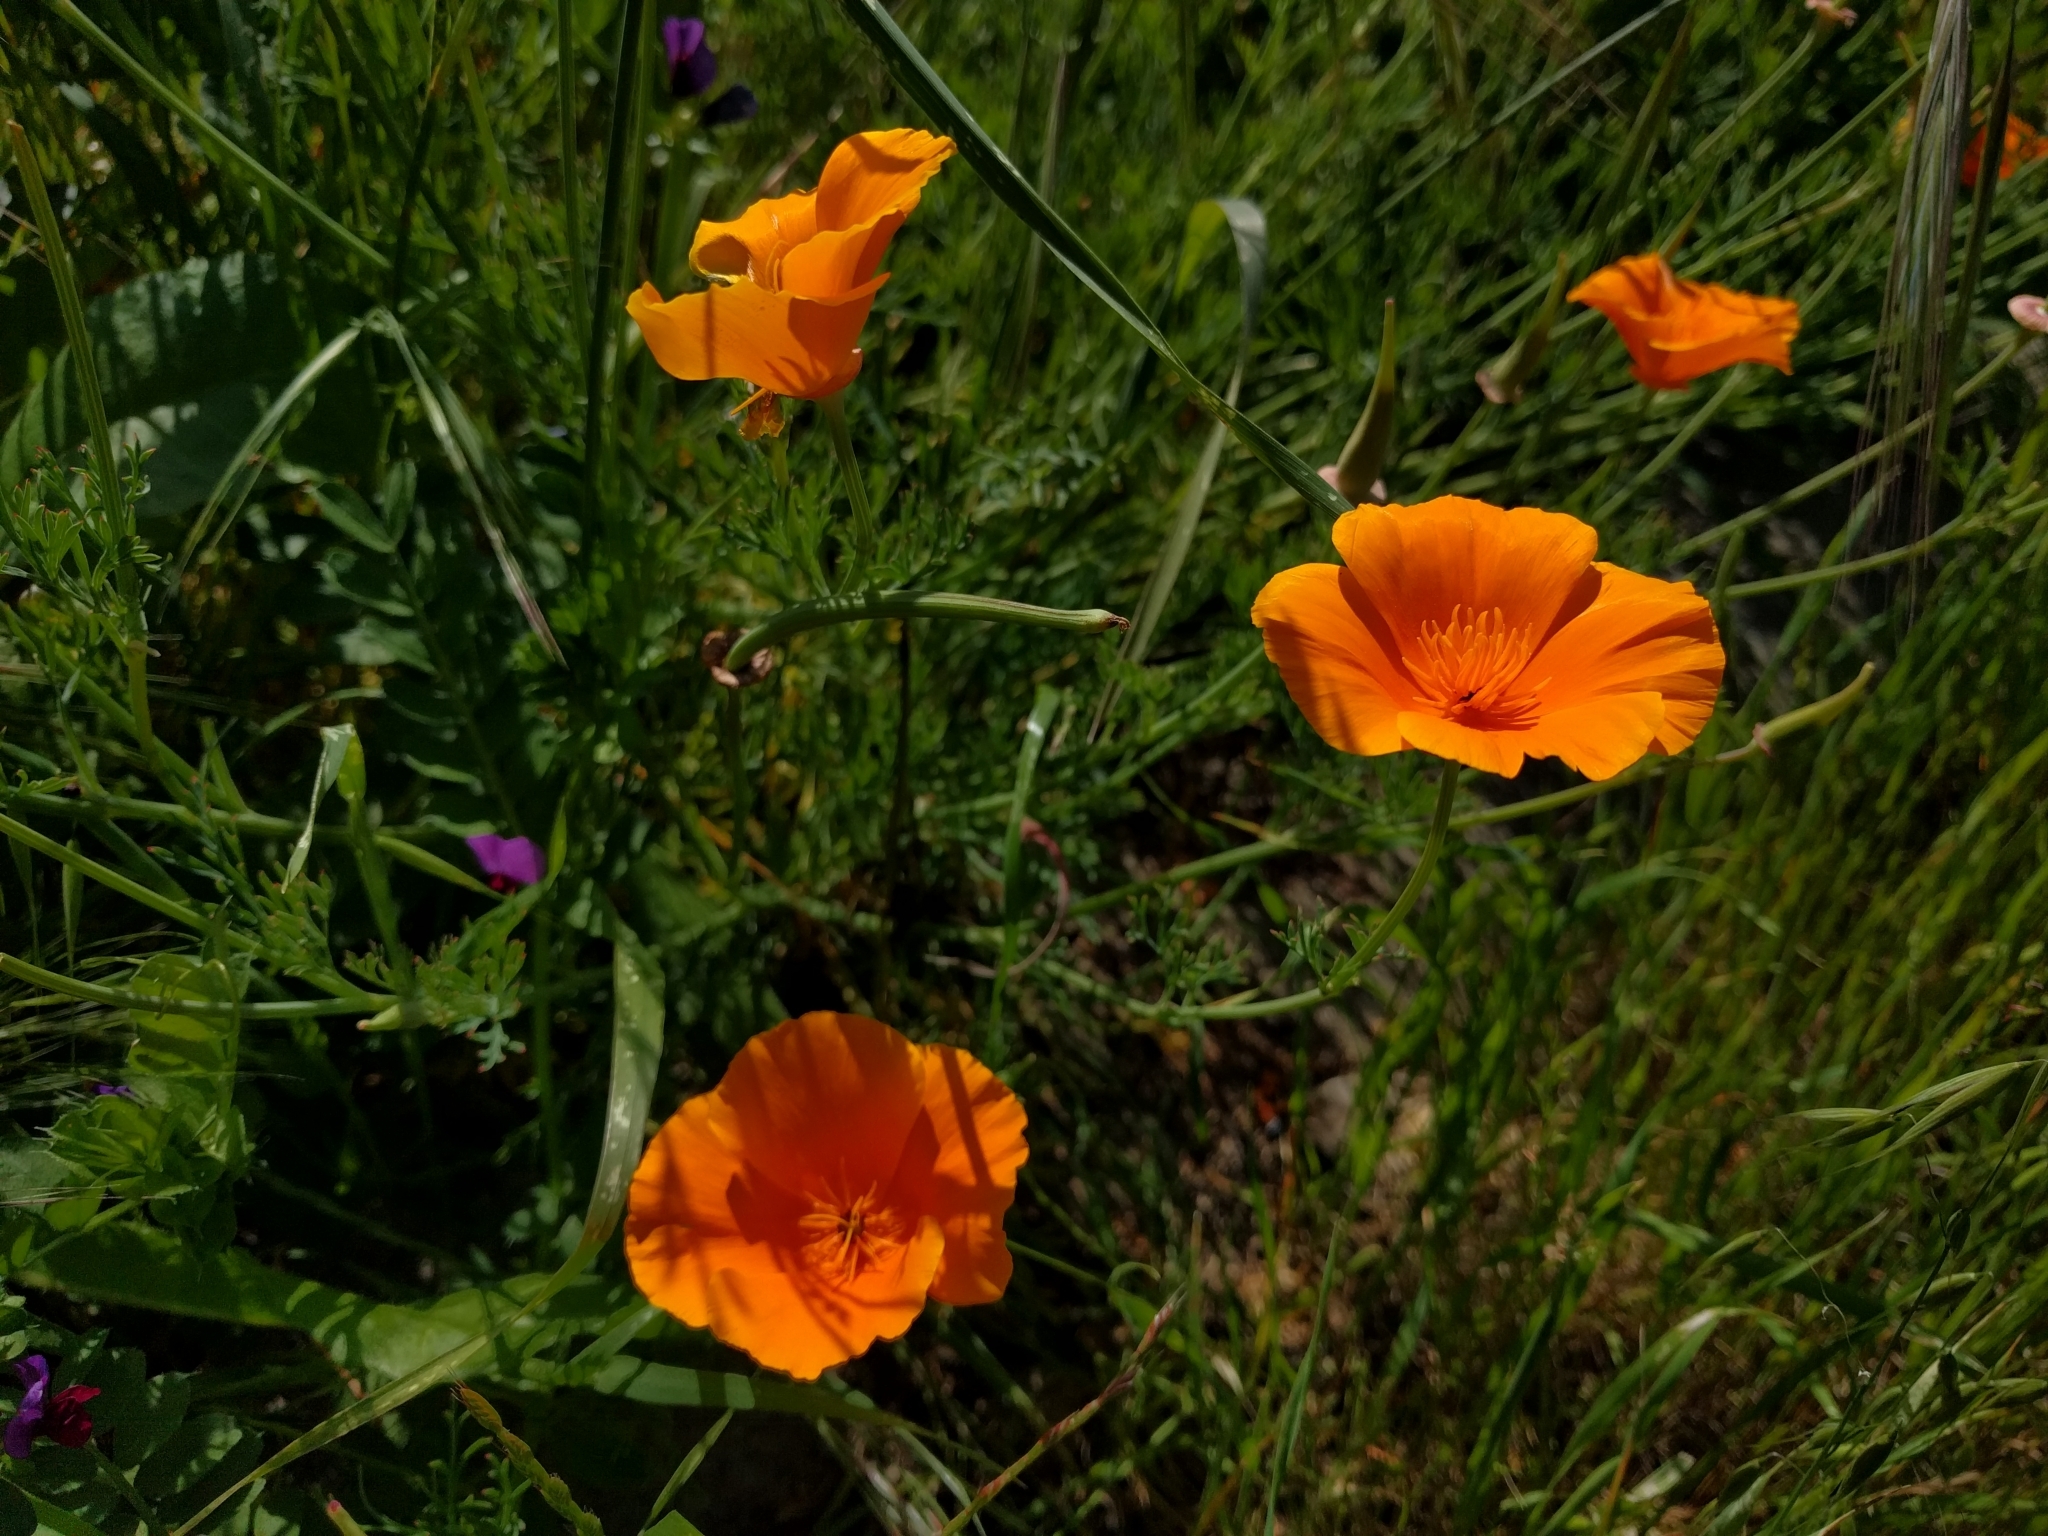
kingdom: Plantae
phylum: Tracheophyta
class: Magnoliopsida
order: Ranunculales
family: Papaveraceae
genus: Eschscholzia
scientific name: Eschscholzia californica
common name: California poppy
